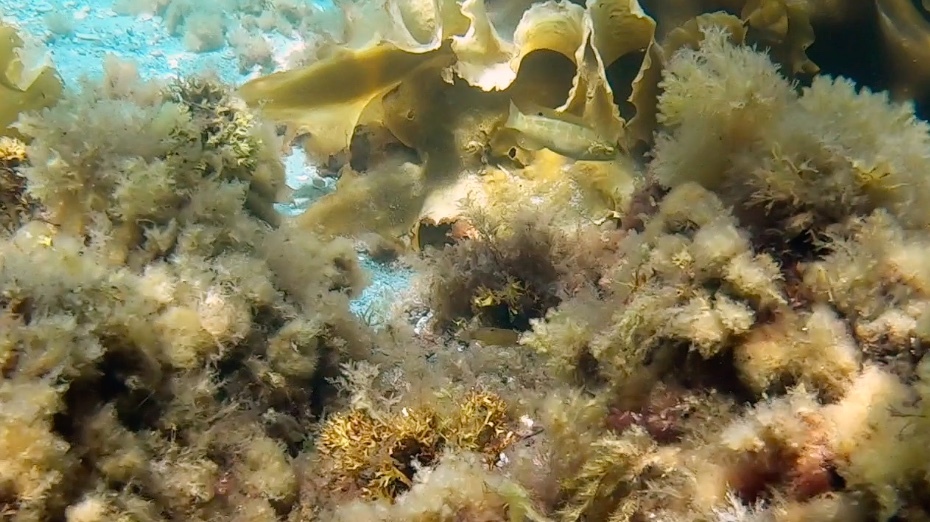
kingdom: Animalia
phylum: Chordata
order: Perciformes
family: Labridae
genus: Tautogolabrus
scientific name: Tautogolabrus adspersus
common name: Cunner
